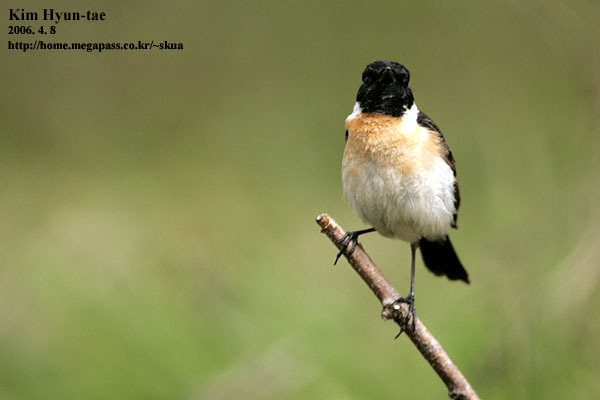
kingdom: Animalia
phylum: Chordata
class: Aves
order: Passeriformes
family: Muscicapidae
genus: Saxicola
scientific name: Saxicola stejnegeri
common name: Stejneger's stonechat
